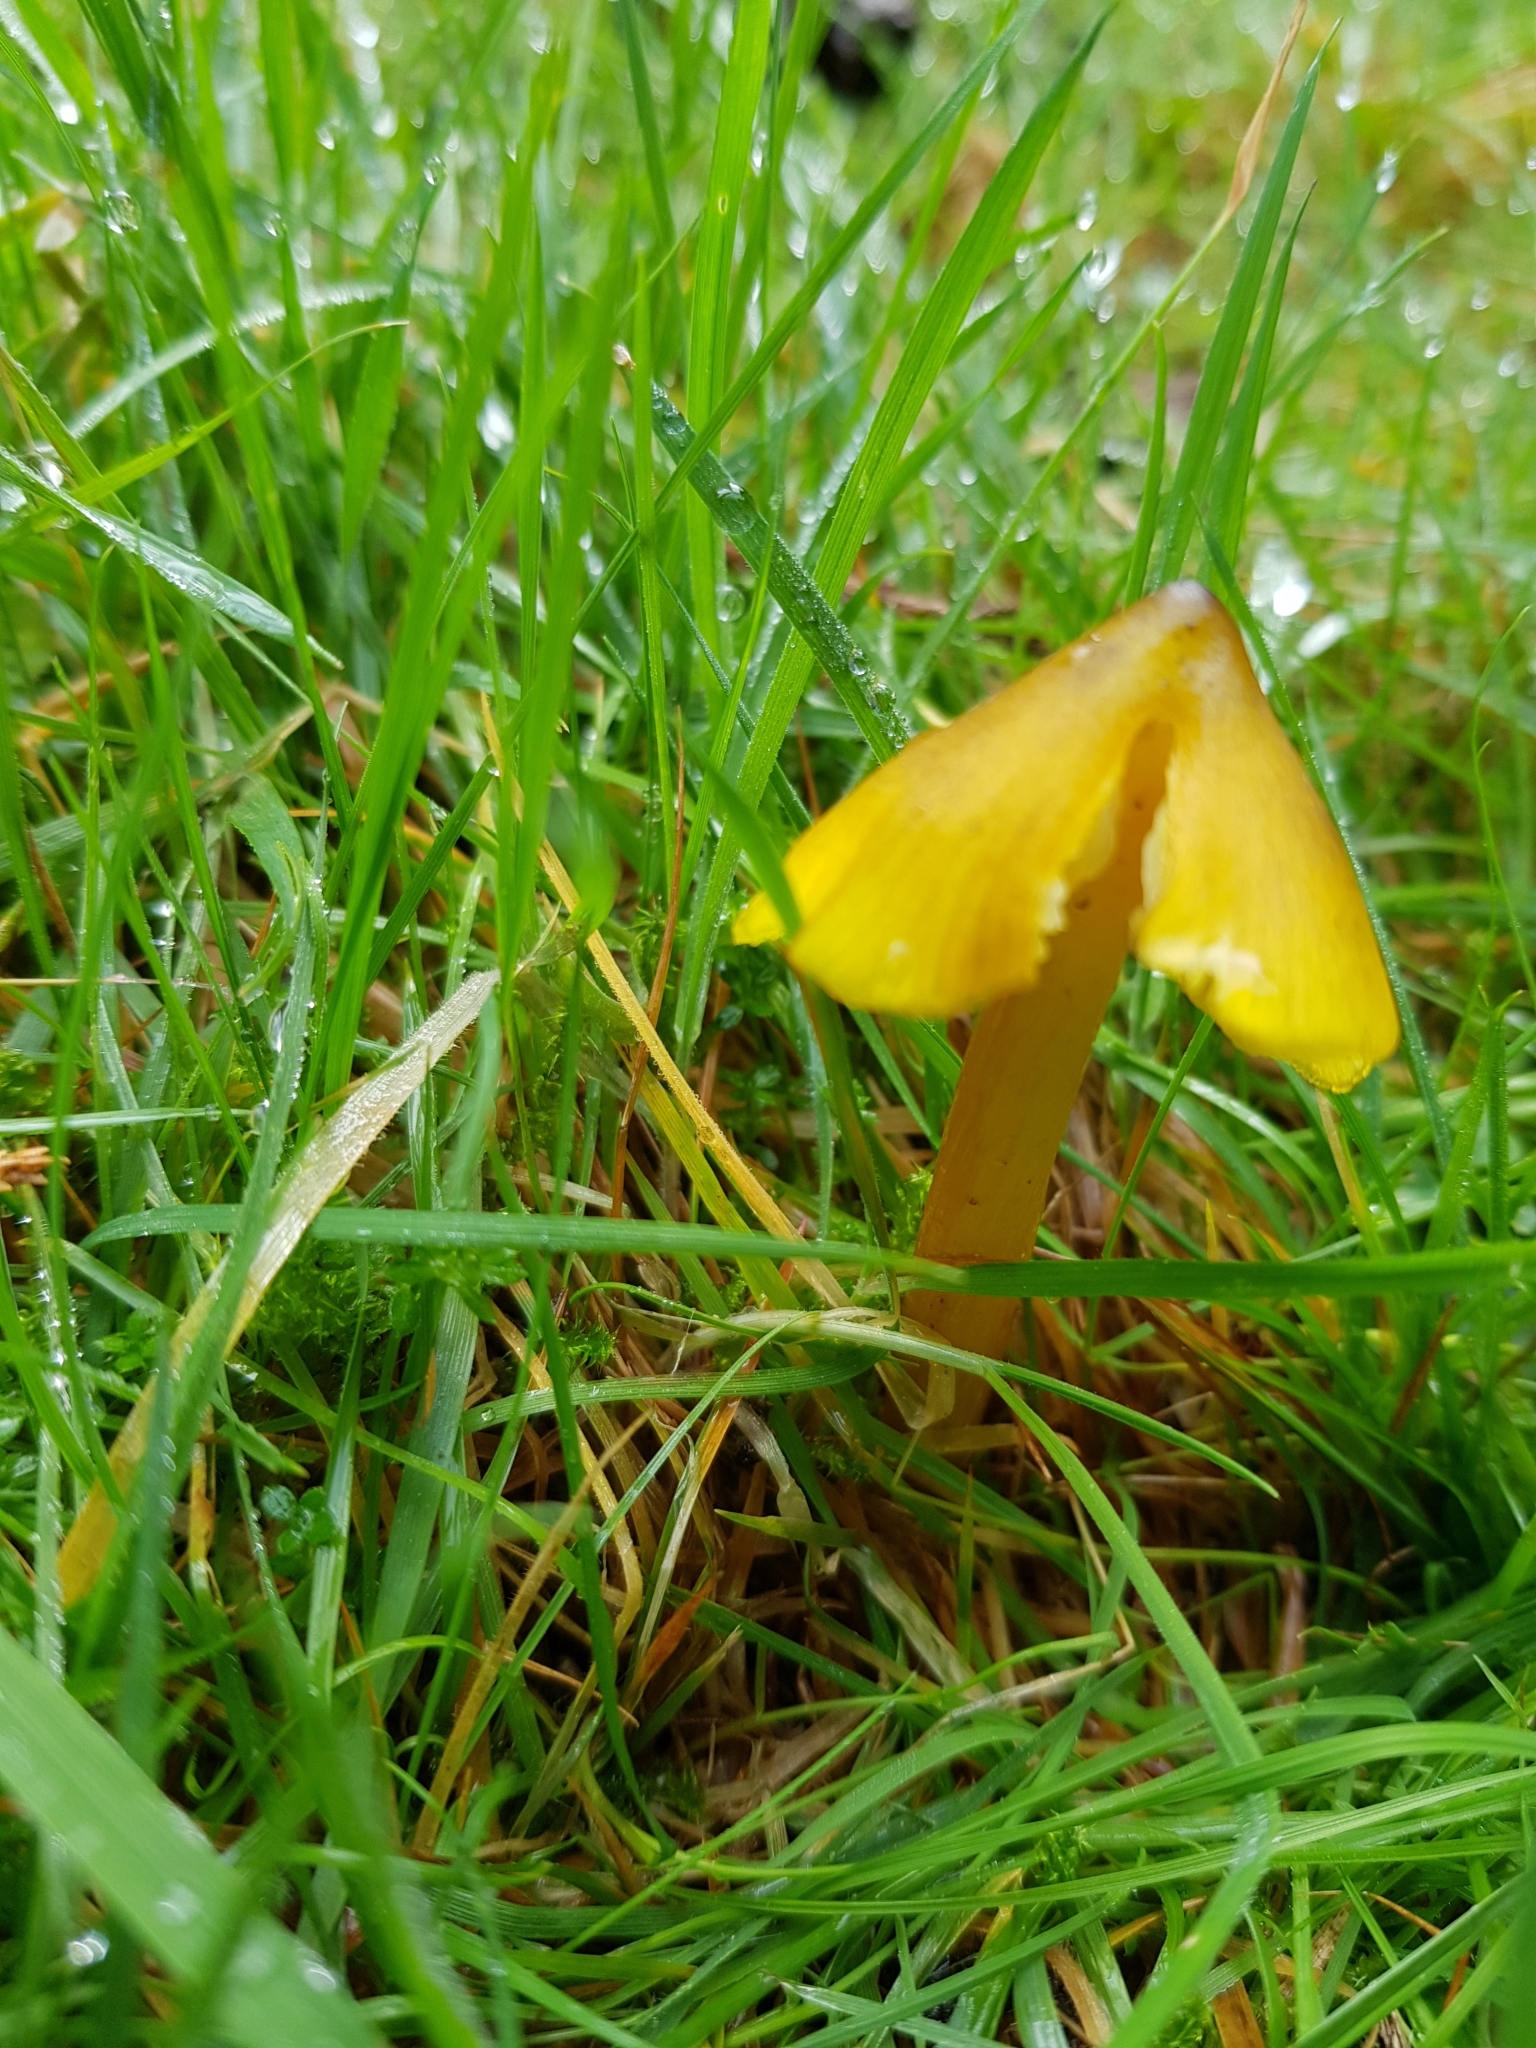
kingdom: Fungi
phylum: Basidiomycota
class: Agaricomycetes
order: Agaricales
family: Hygrophoraceae
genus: Hygrocybe
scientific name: Hygrocybe conica
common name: Blackening wax-cap
